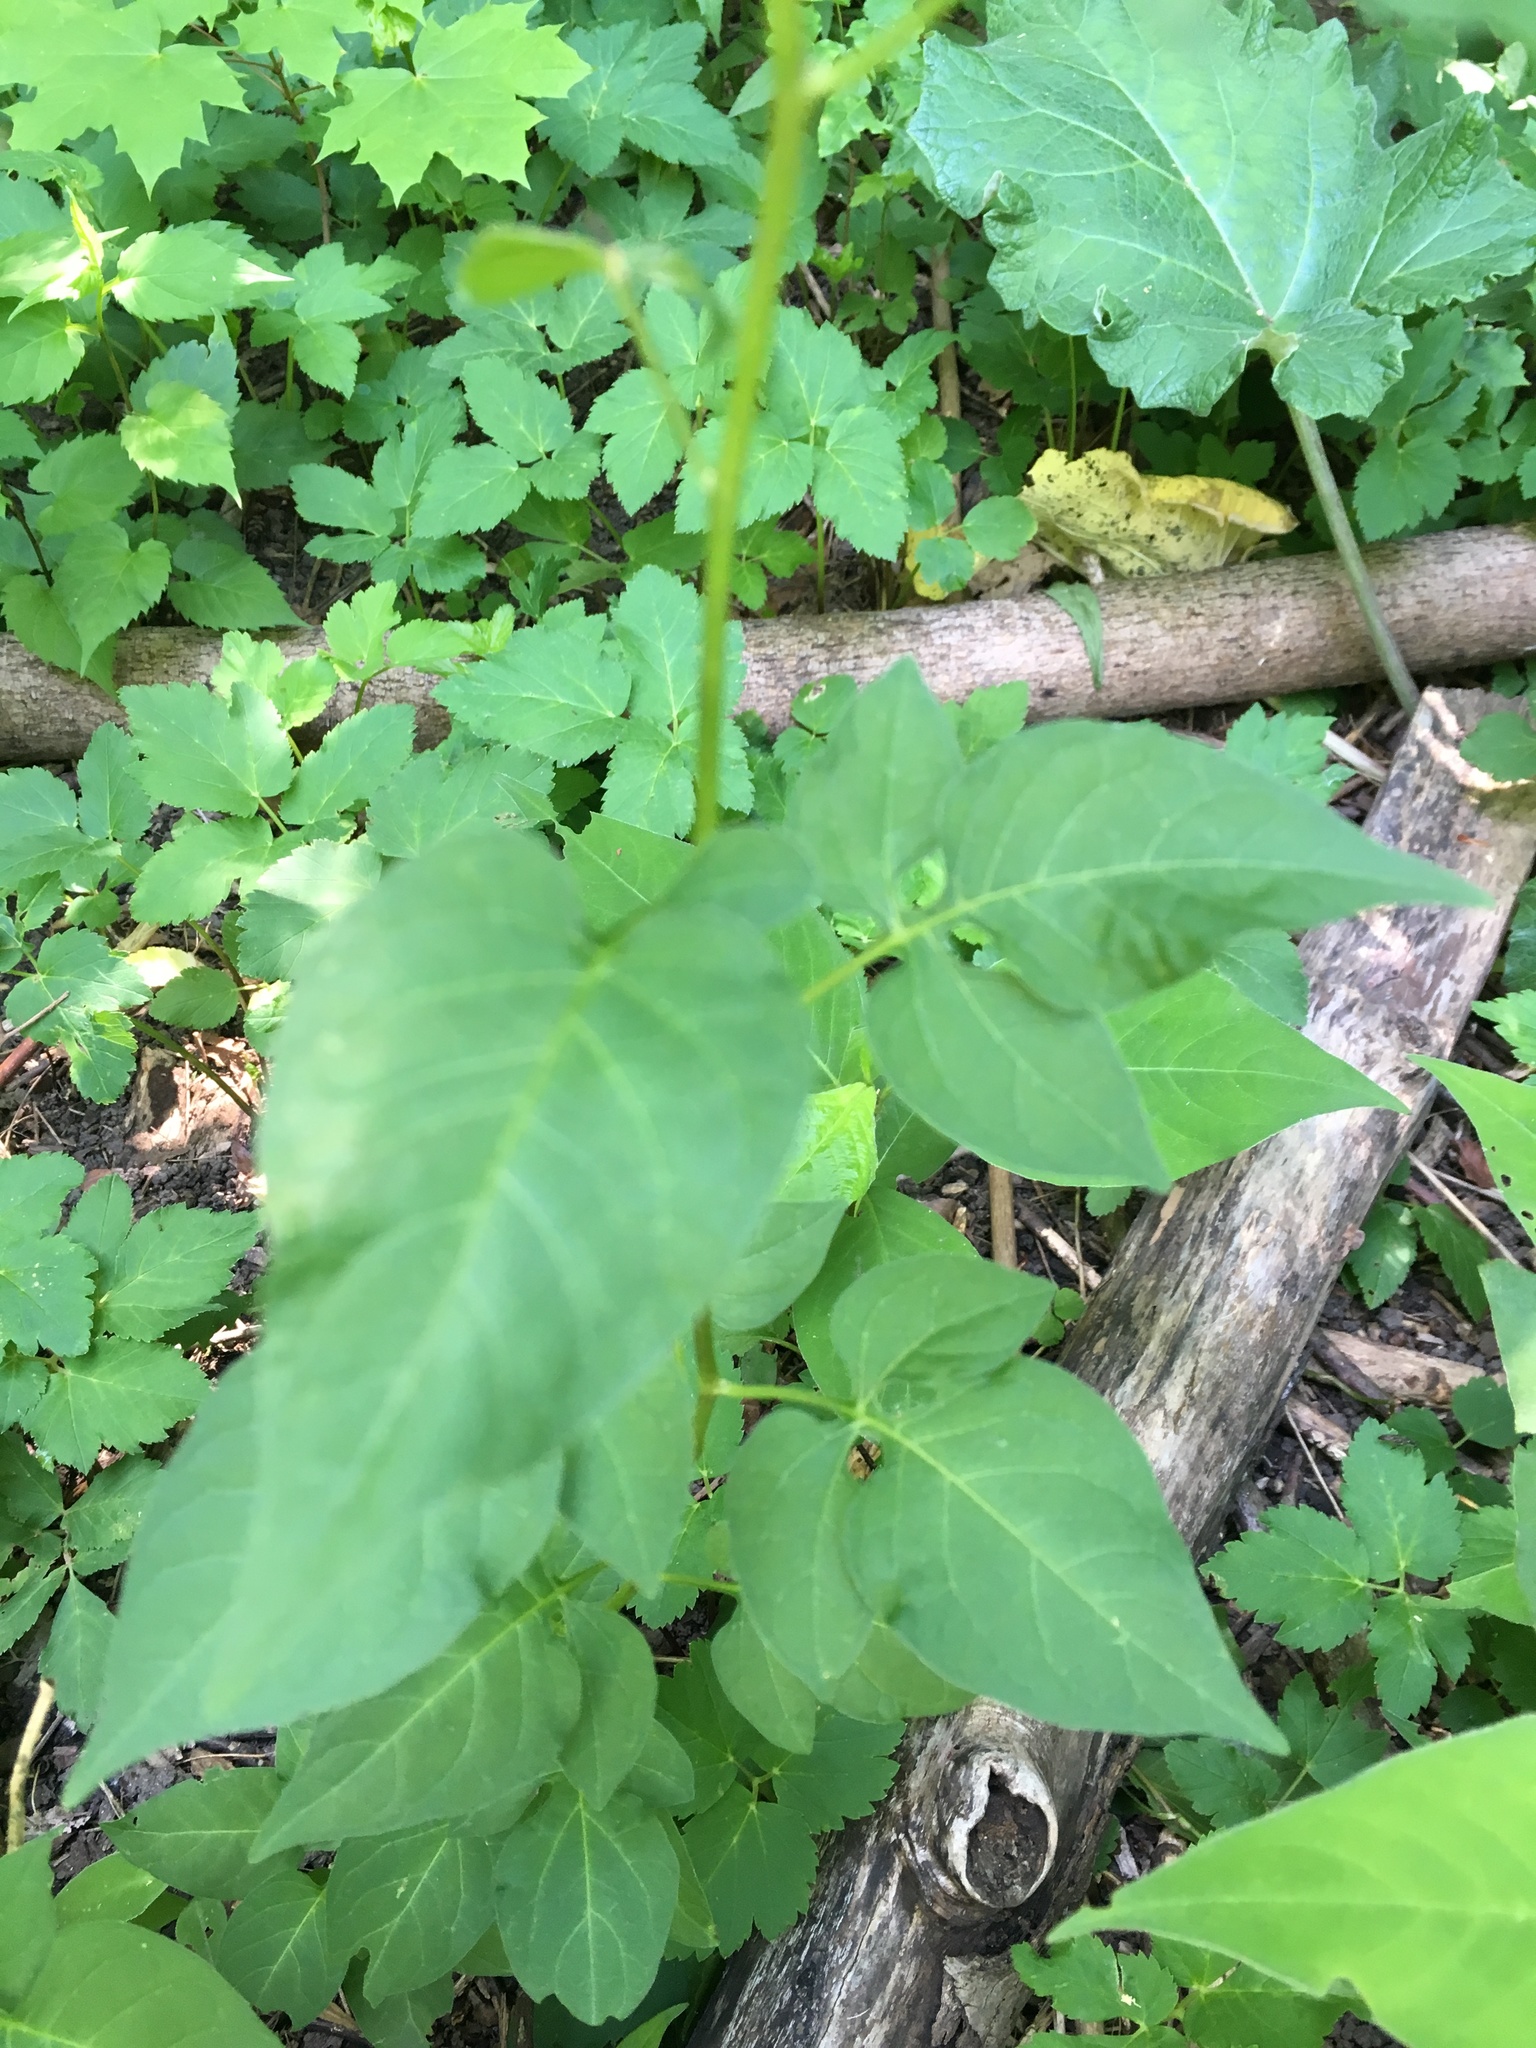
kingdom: Plantae
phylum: Tracheophyta
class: Magnoliopsida
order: Solanales
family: Solanaceae
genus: Solanum
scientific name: Solanum dulcamara
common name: Climbing nightshade
